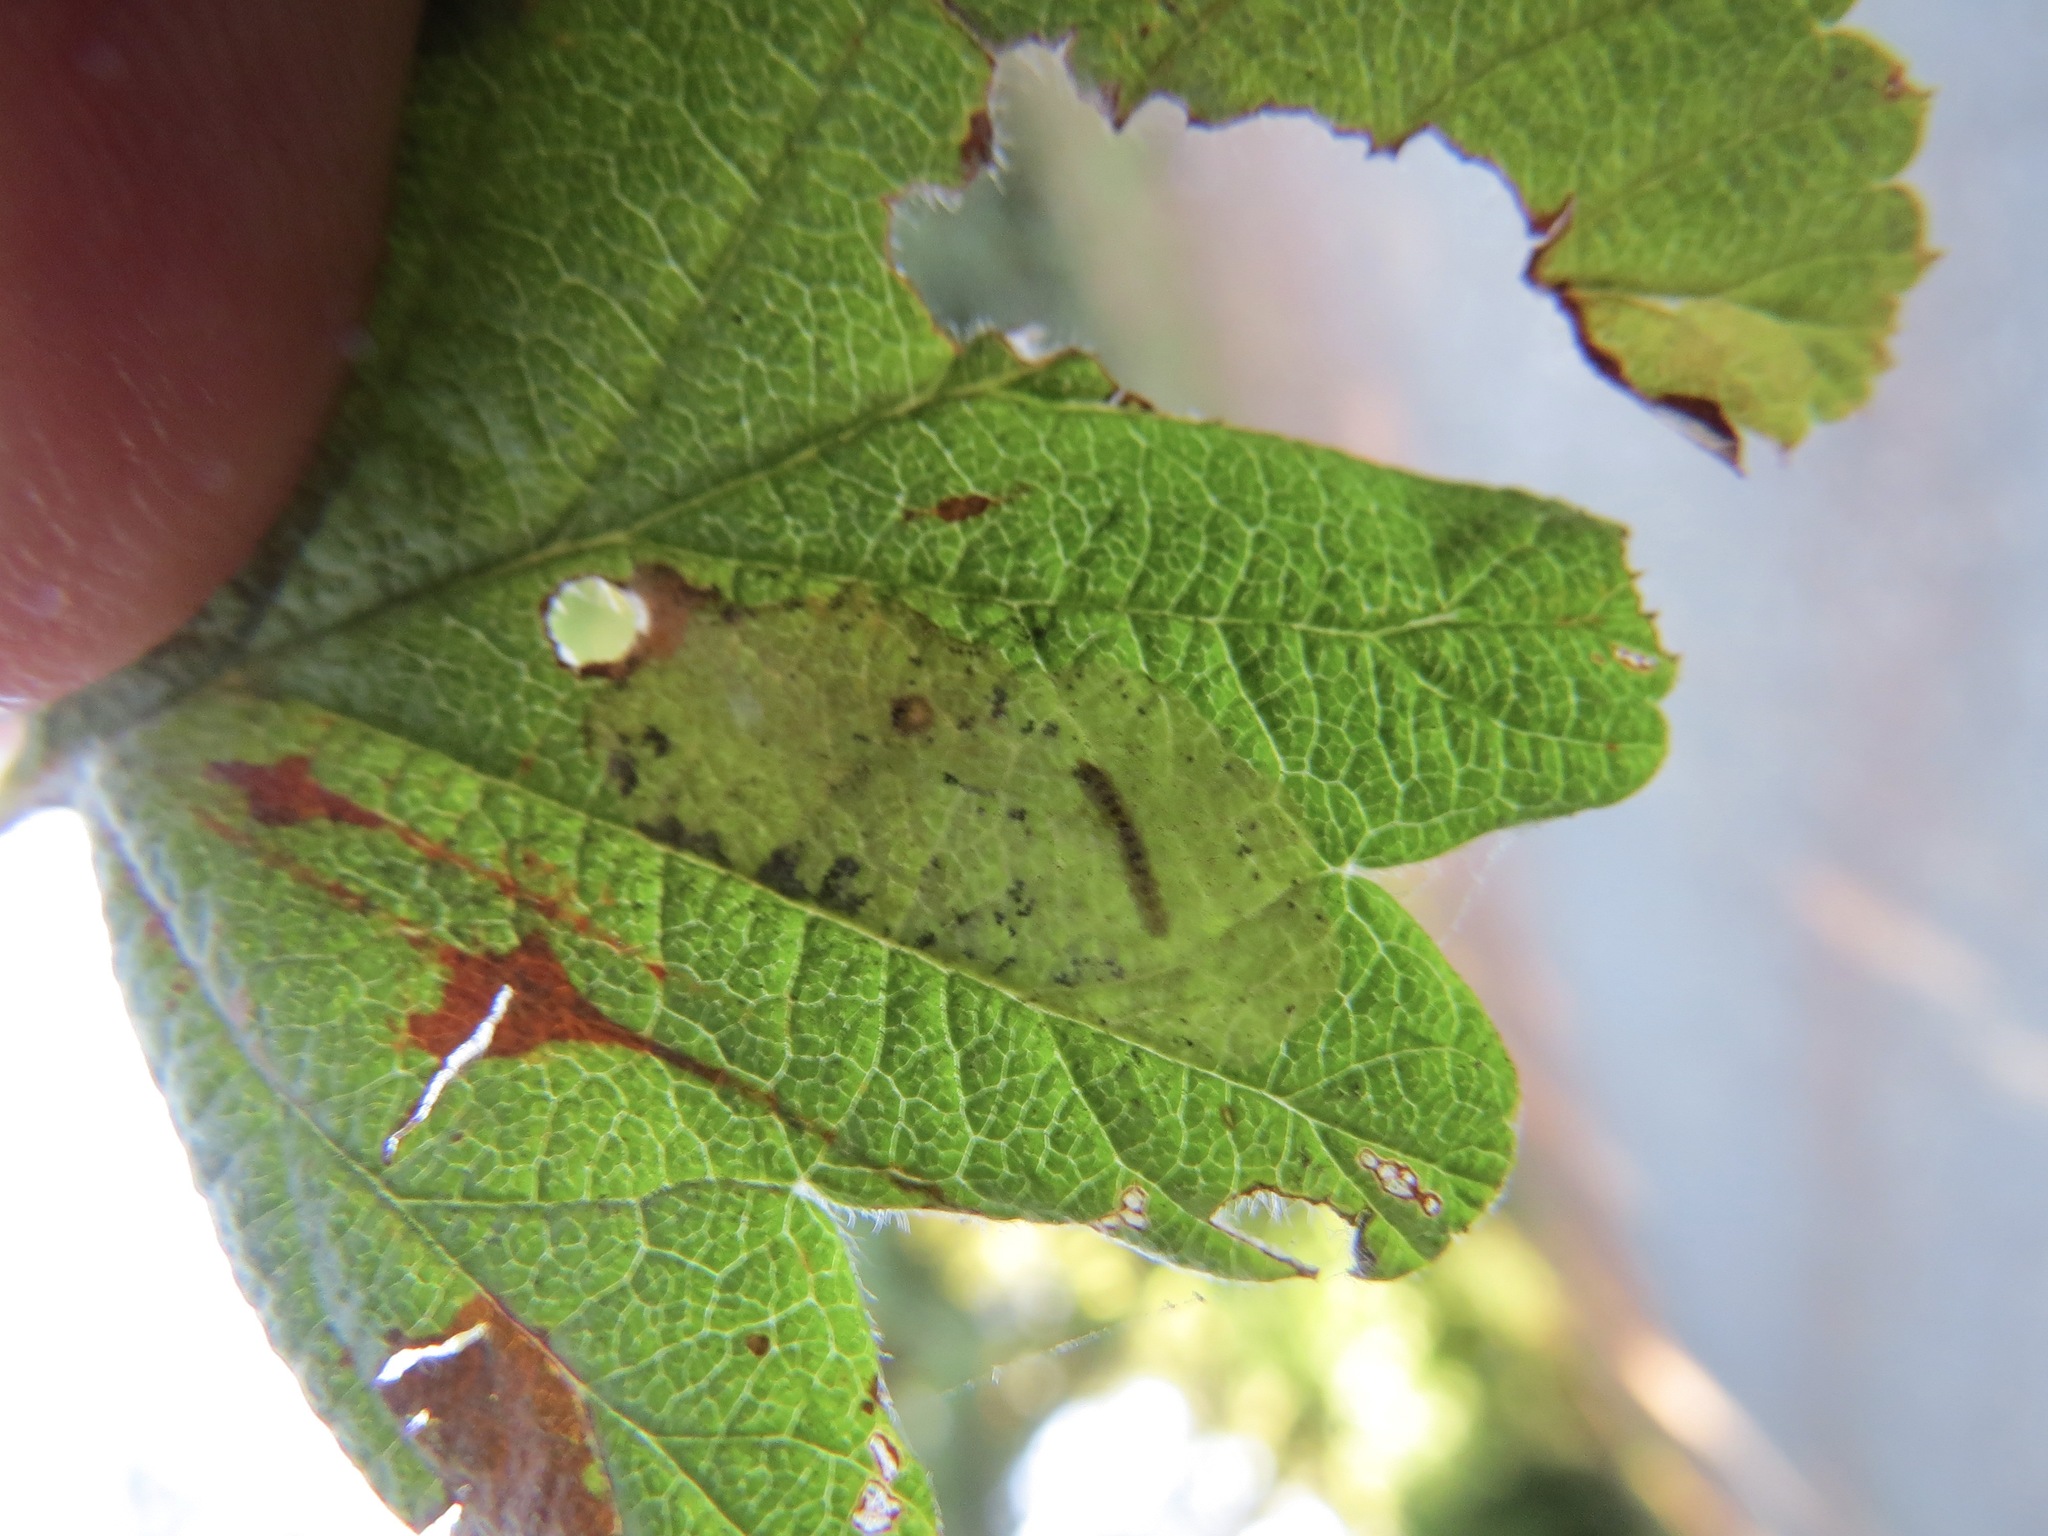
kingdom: Animalia
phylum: Arthropoda
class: Insecta
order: Lepidoptera
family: Gracillariidae
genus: Phyllonorycter
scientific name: Phyllonorycter holodisci
